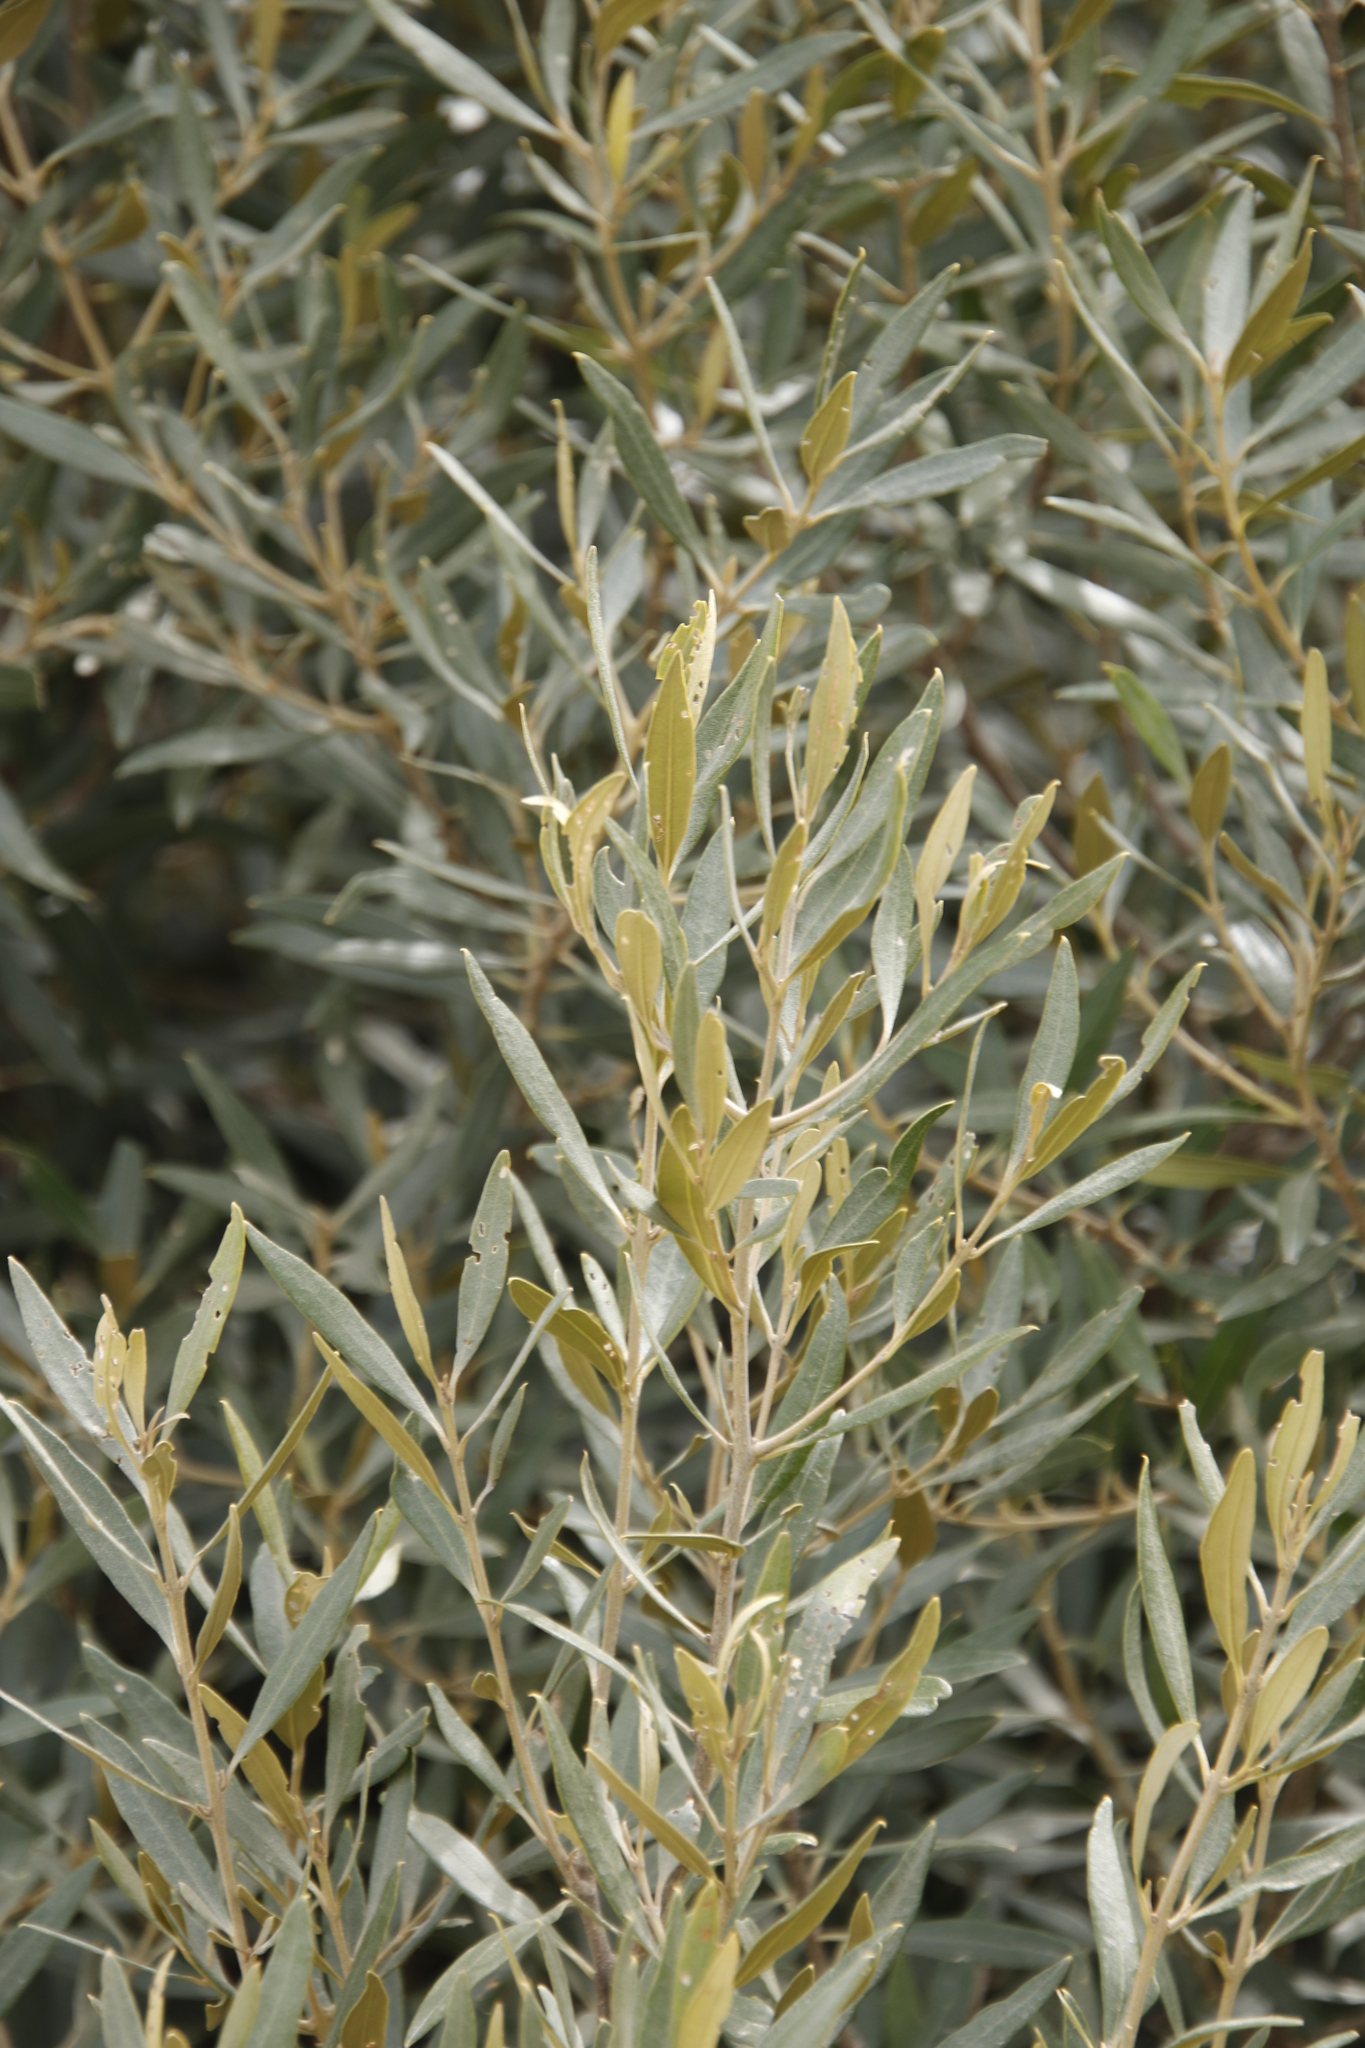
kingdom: Plantae
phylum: Tracheophyta
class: Magnoliopsida
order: Lamiales
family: Oleaceae
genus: Olea
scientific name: Olea europaea
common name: Olive
